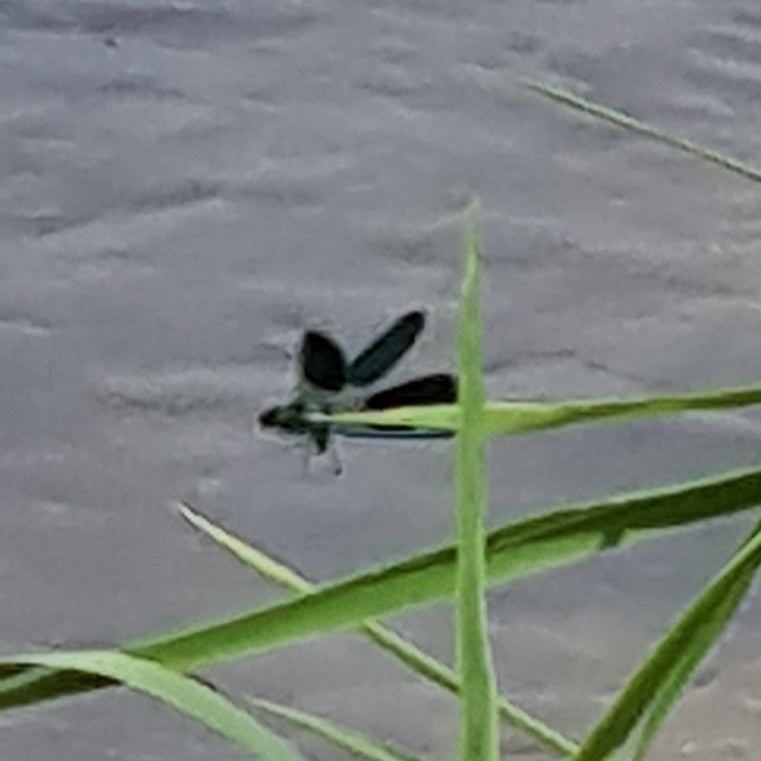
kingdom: Animalia
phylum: Arthropoda
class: Insecta
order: Odonata
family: Calopterygidae
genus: Calopteryx
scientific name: Calopteryx splendens
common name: Banded demoiselle
